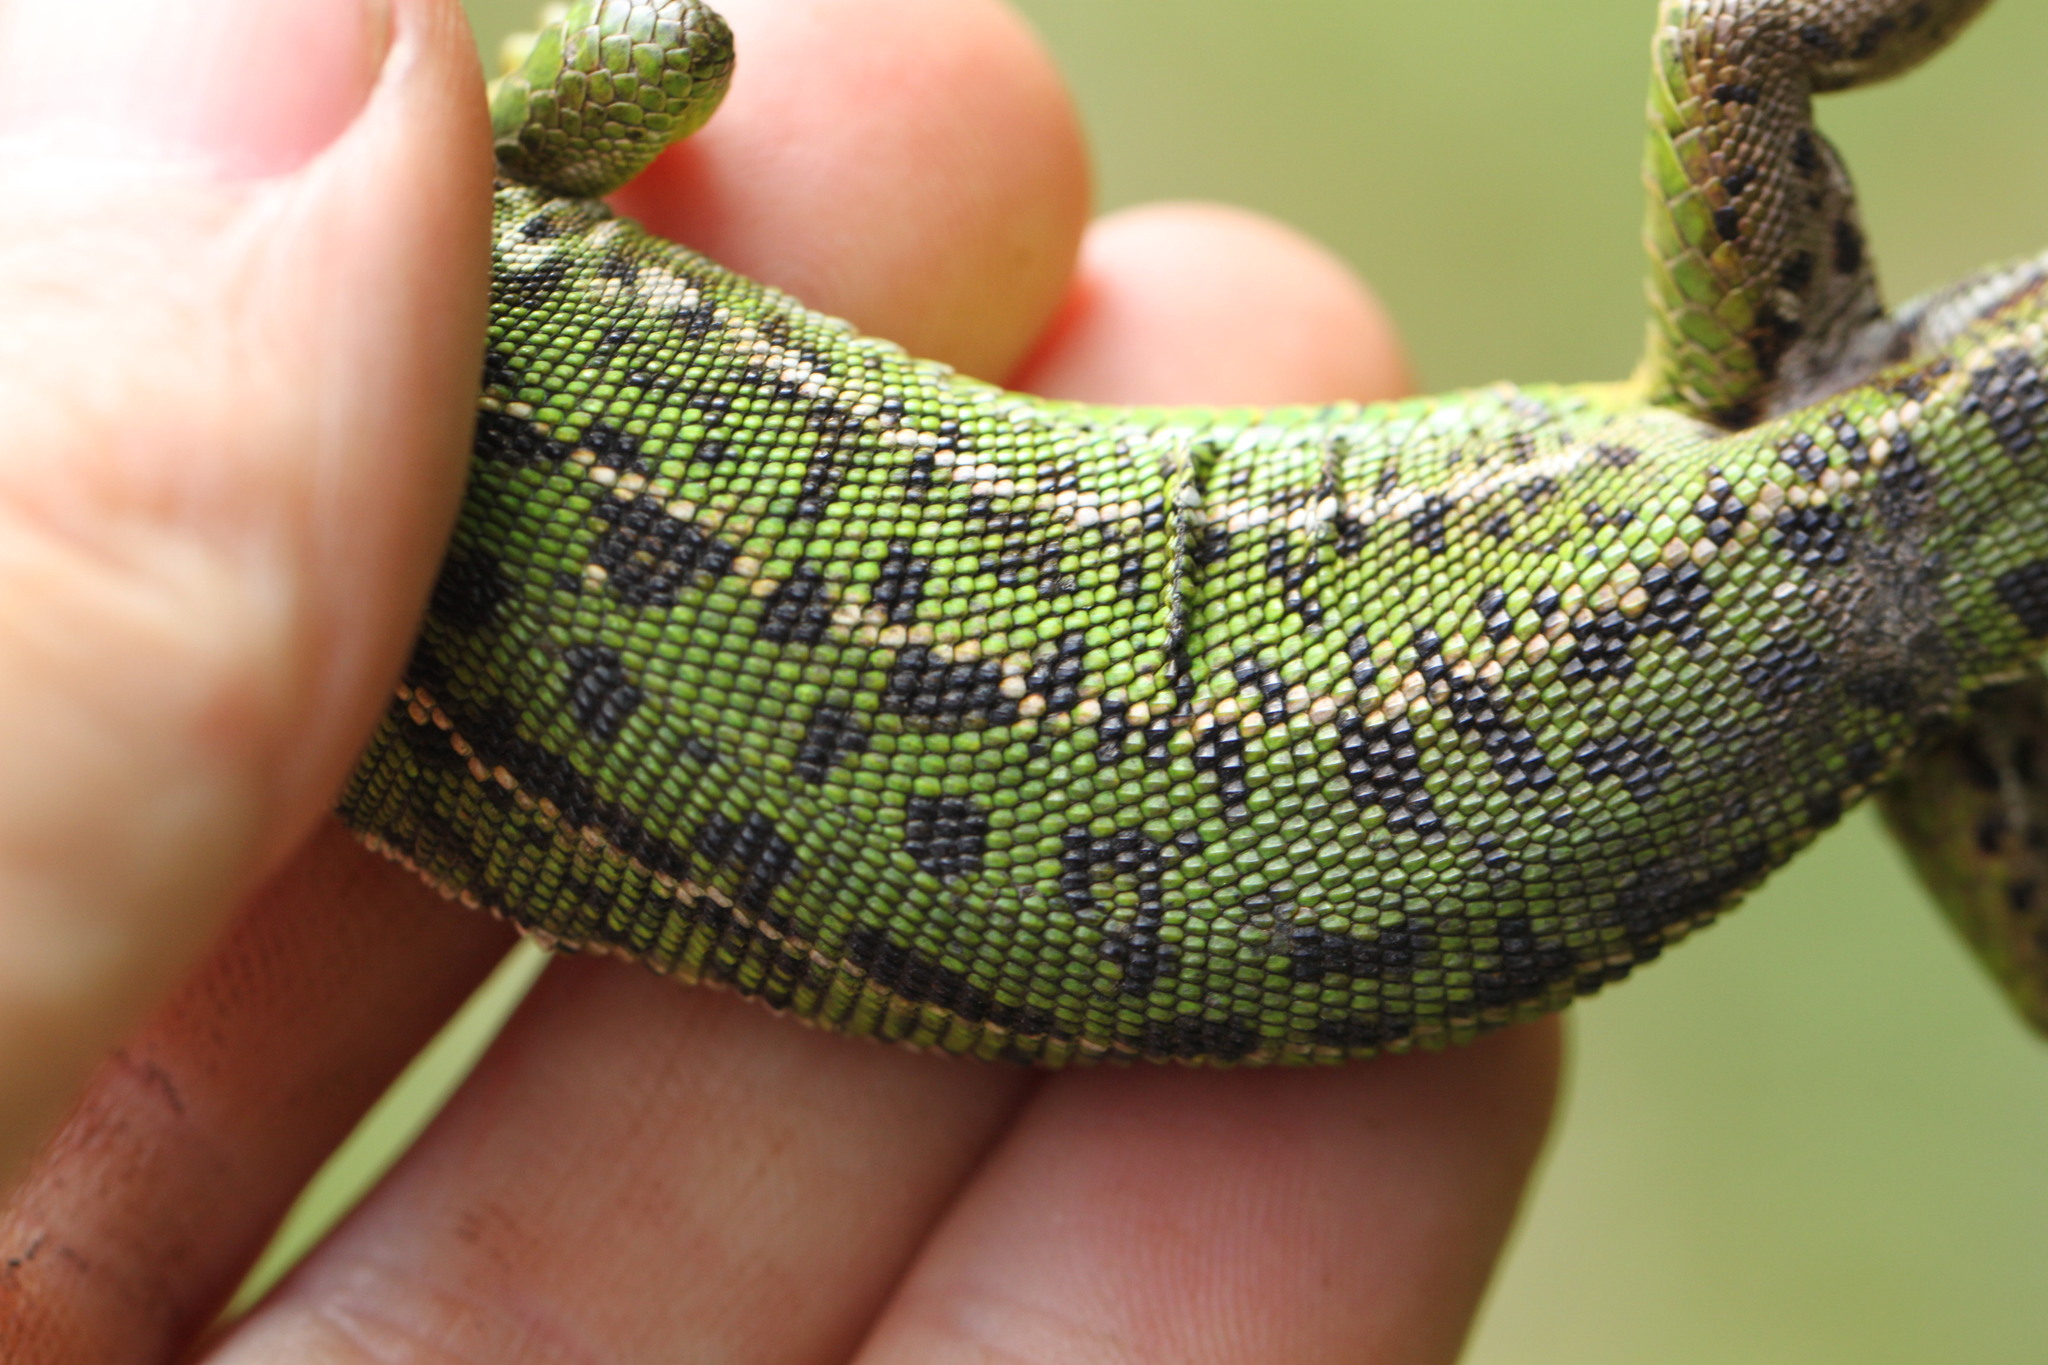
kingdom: Animalia
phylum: Chordata
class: Squamata
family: Lacertidae
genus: Lacerta
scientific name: Lacerta bilineata
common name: Western green lizard
